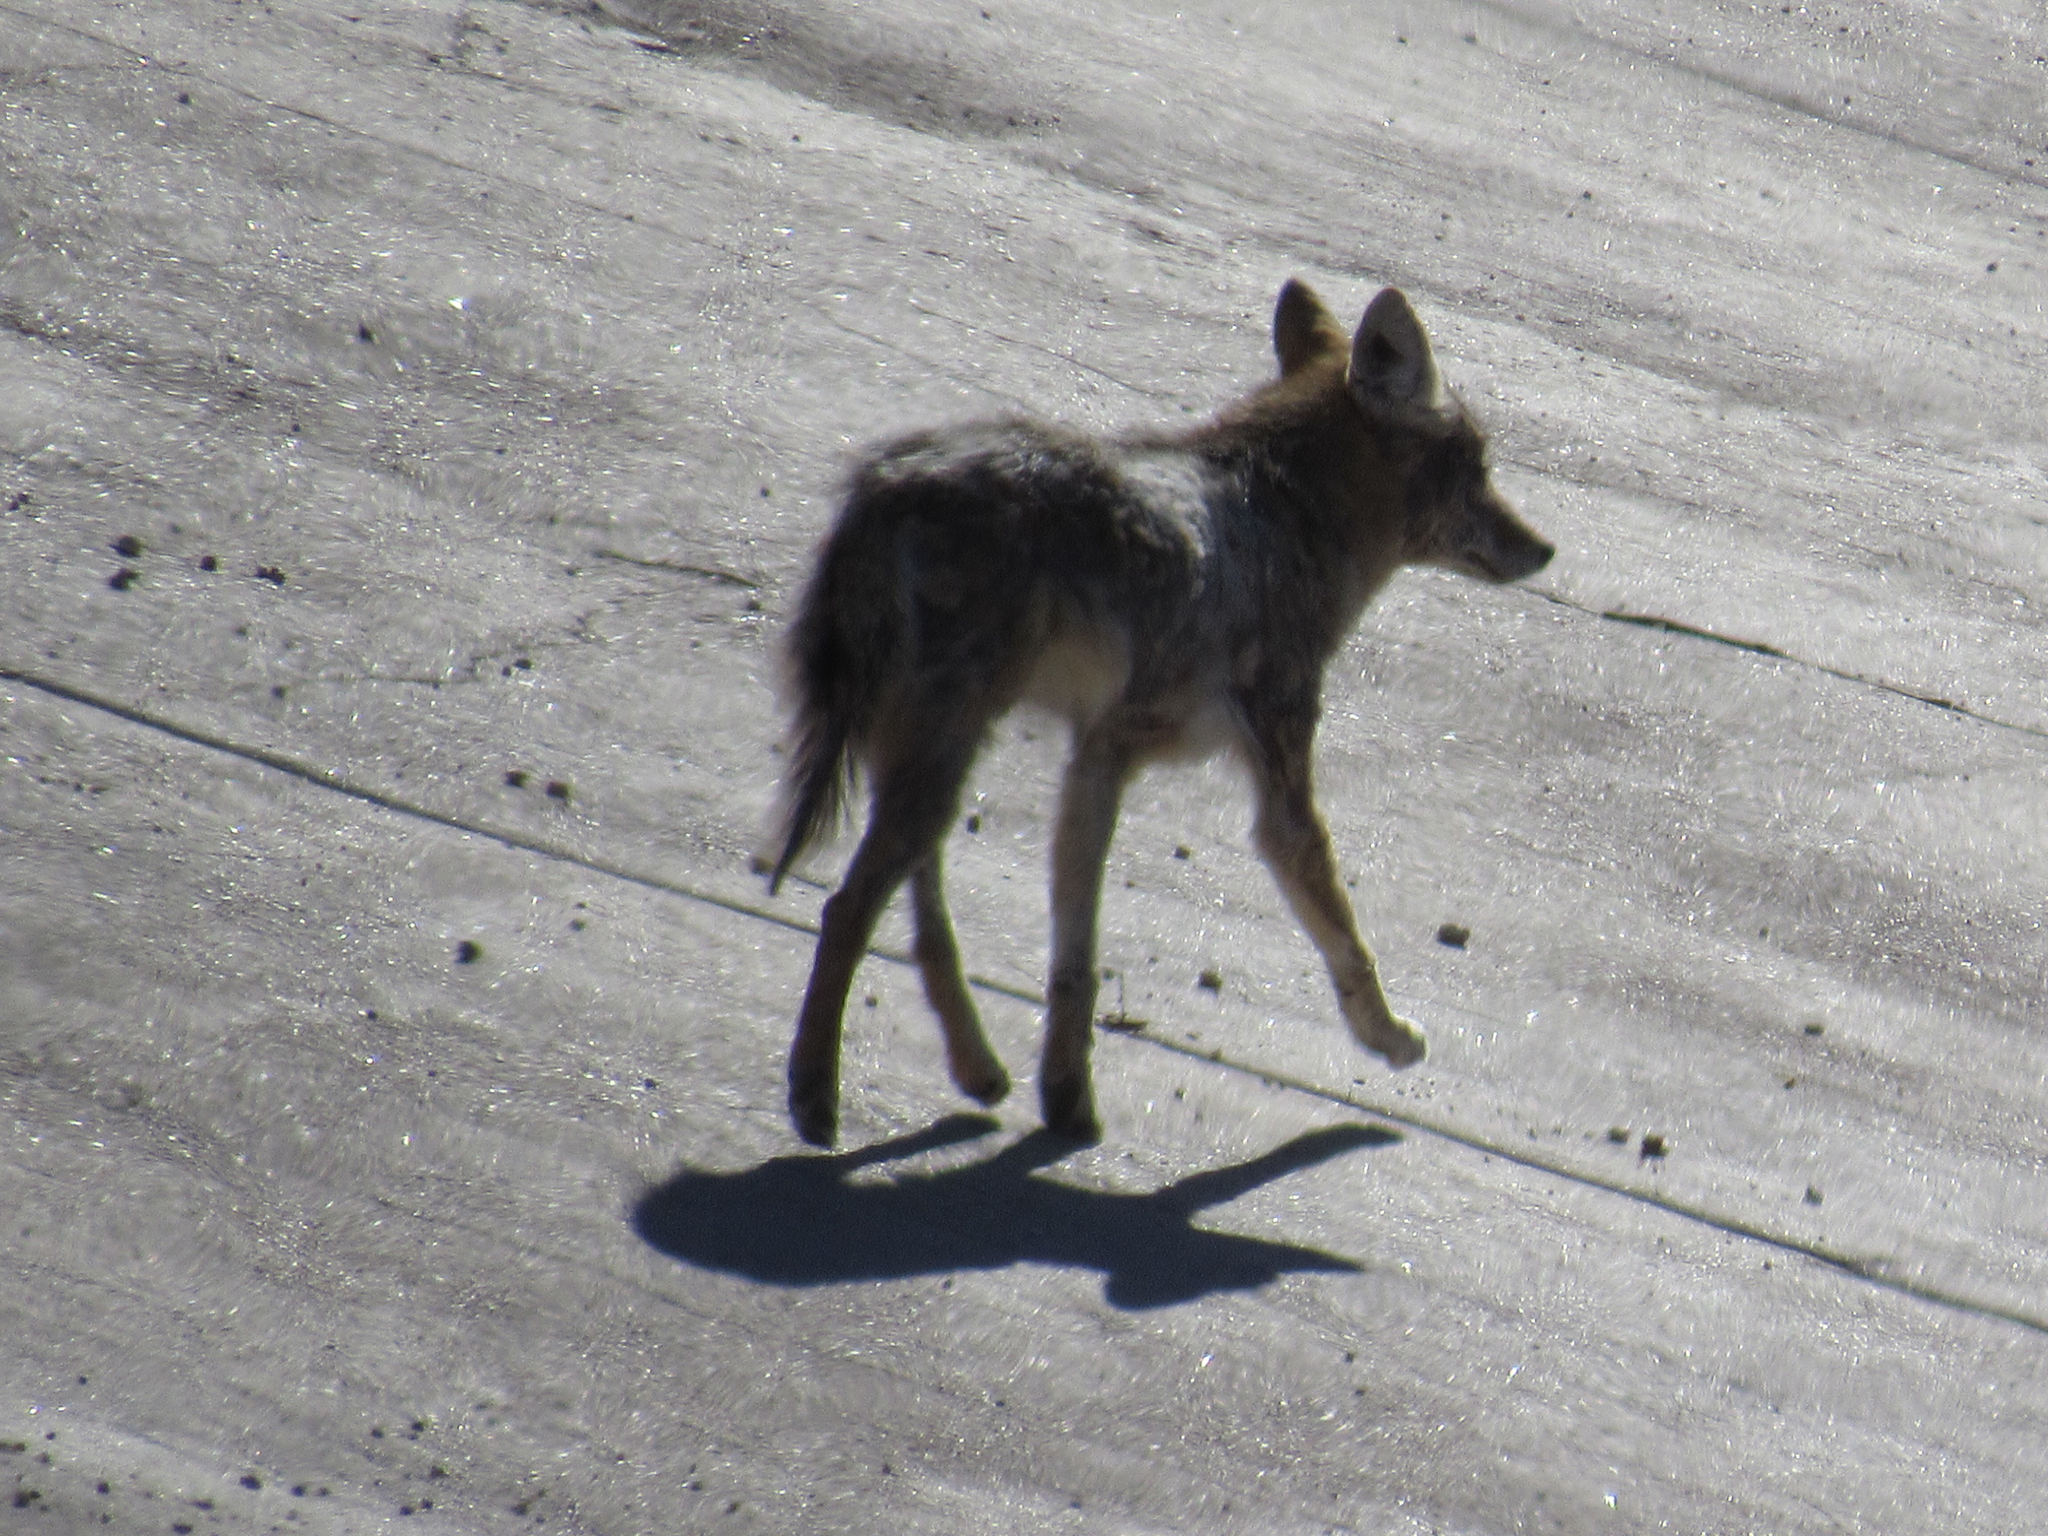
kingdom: Animalia
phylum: Chordata
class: Mammalia
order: Carnivora
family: Canidae
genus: Canis
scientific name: Canis latrans
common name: Coyote
